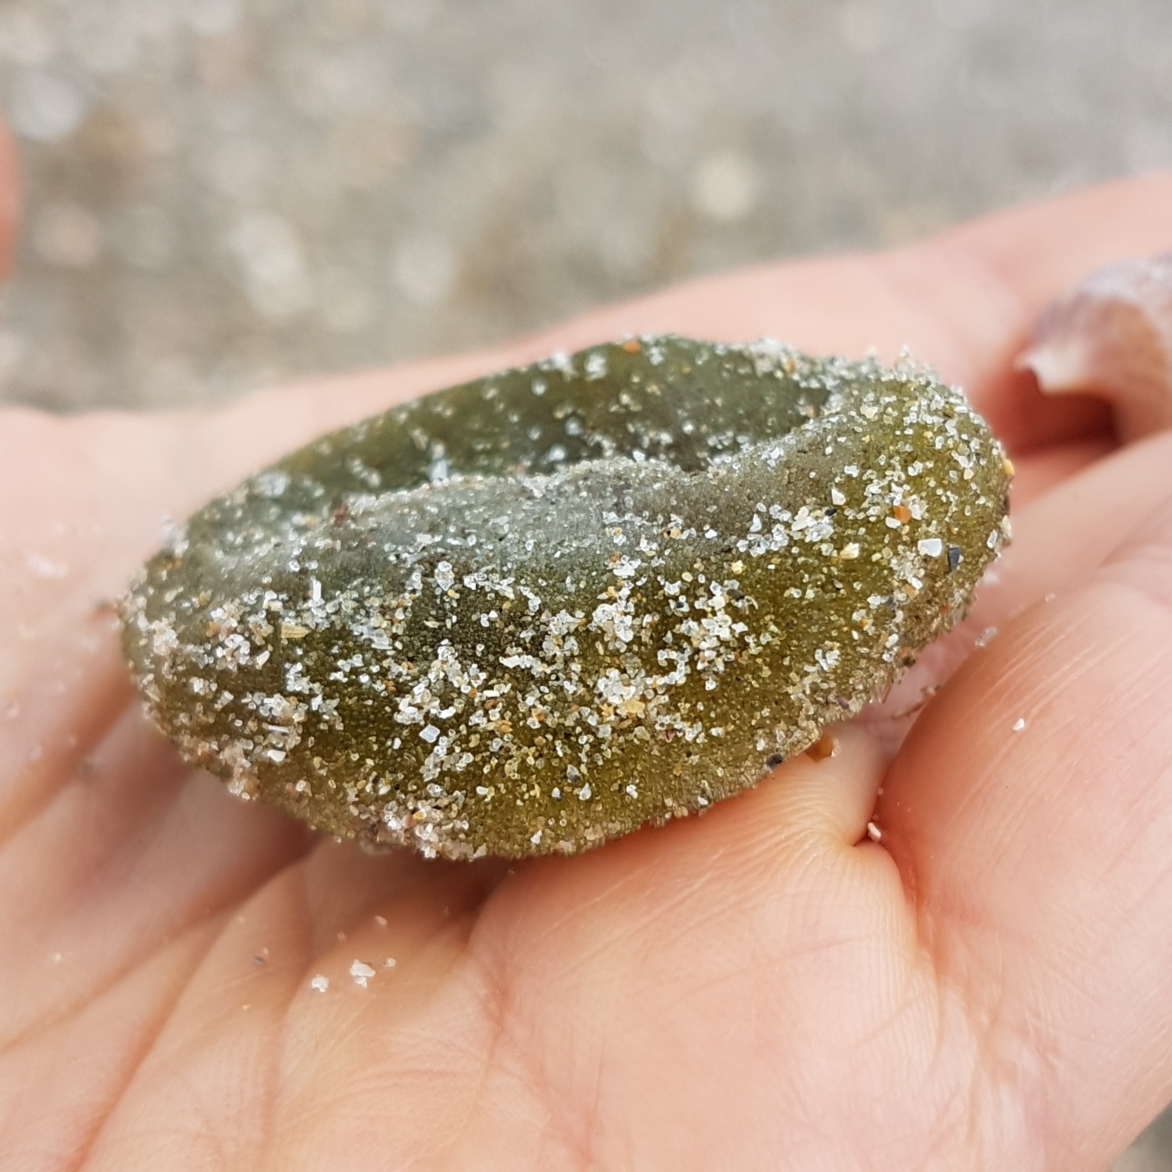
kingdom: Plantae
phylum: Chlorophyta
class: Ulvophyceae
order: Bryopsidales
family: Codiaceae
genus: Codium
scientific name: Codium bursa
